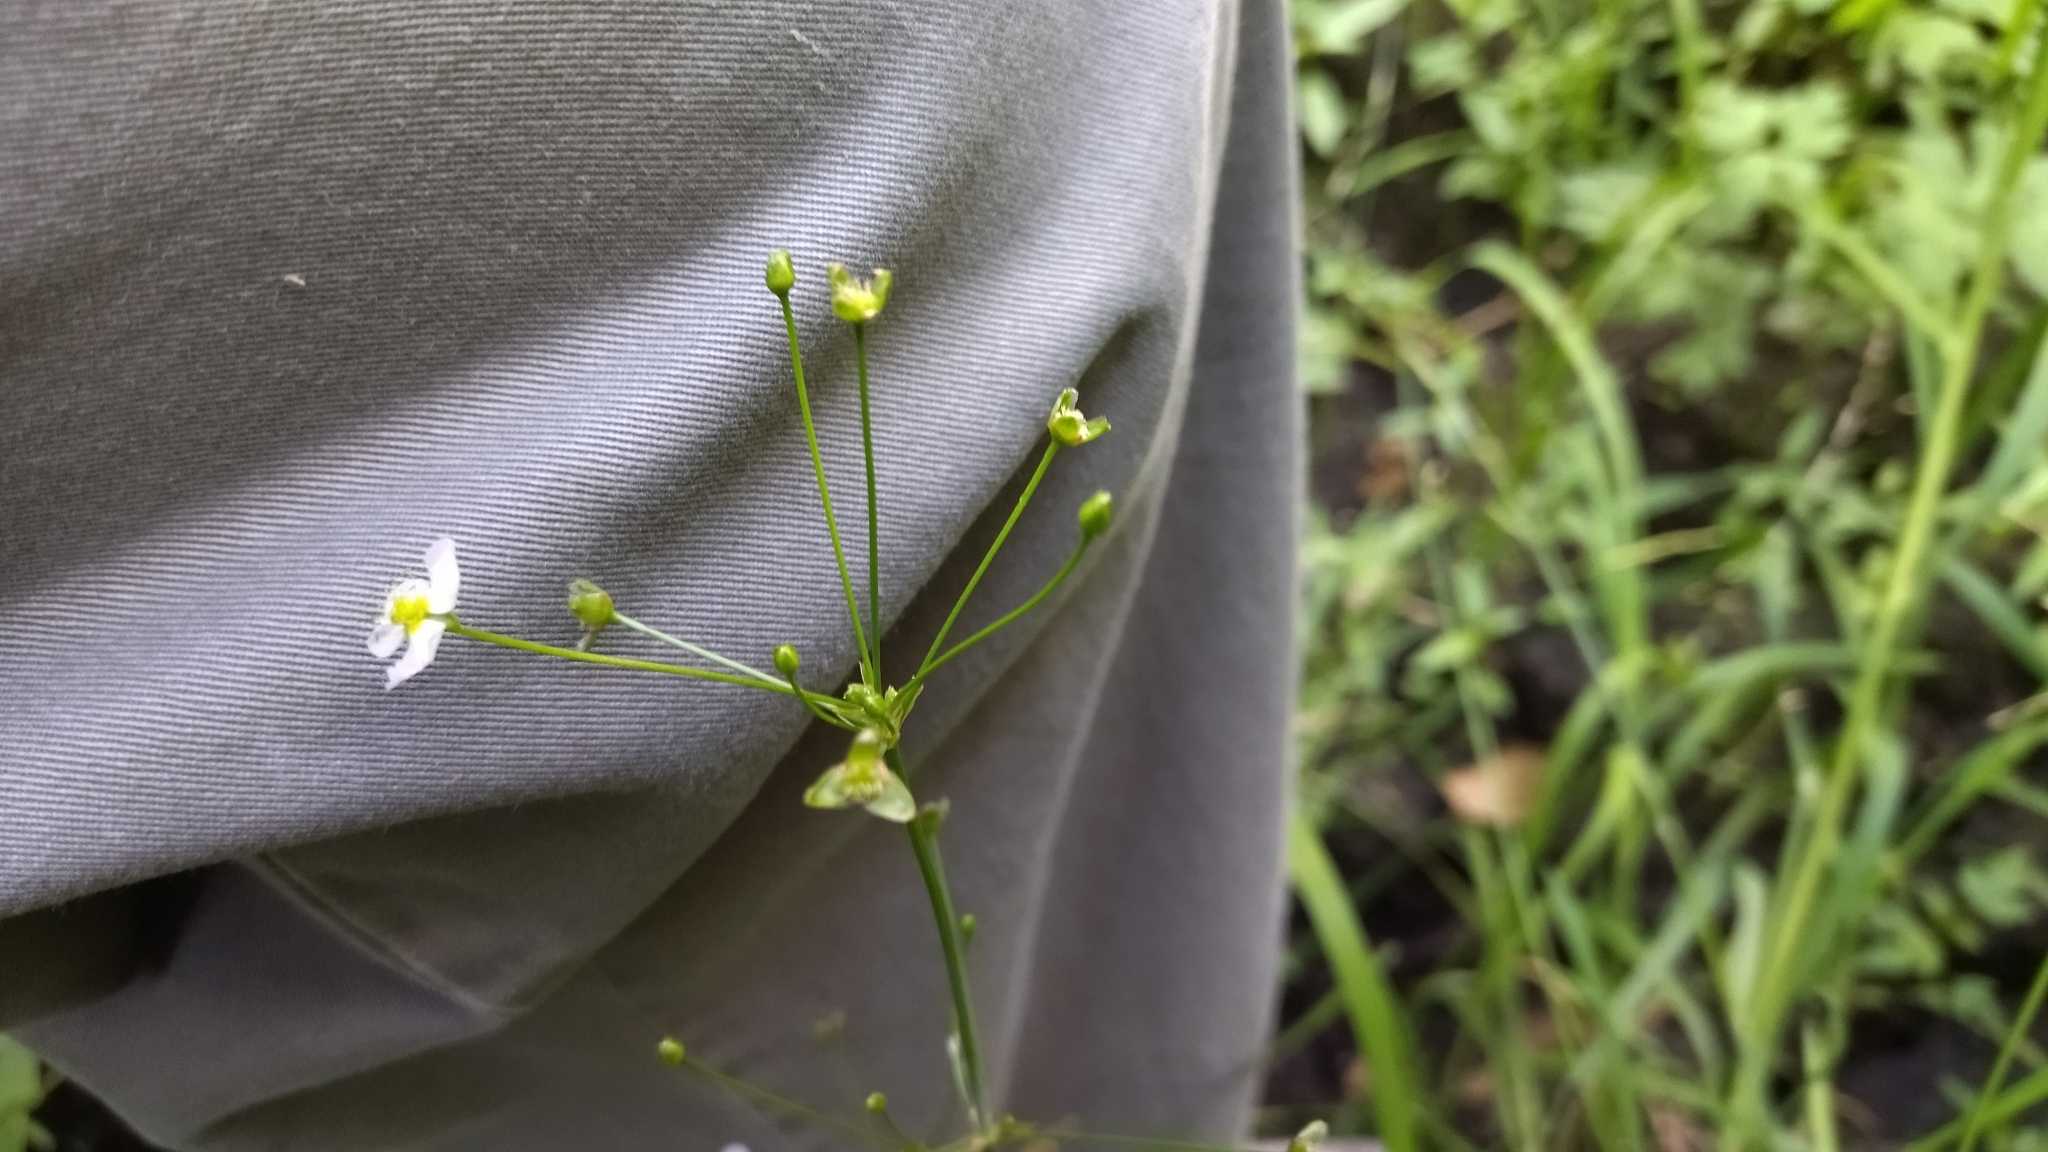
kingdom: Plantae
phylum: Tracheophyta
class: Liliopsida
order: Alismatales
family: Alismataceae
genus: Alisma
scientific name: Alisma plantago-aquatica
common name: Water-plantain
